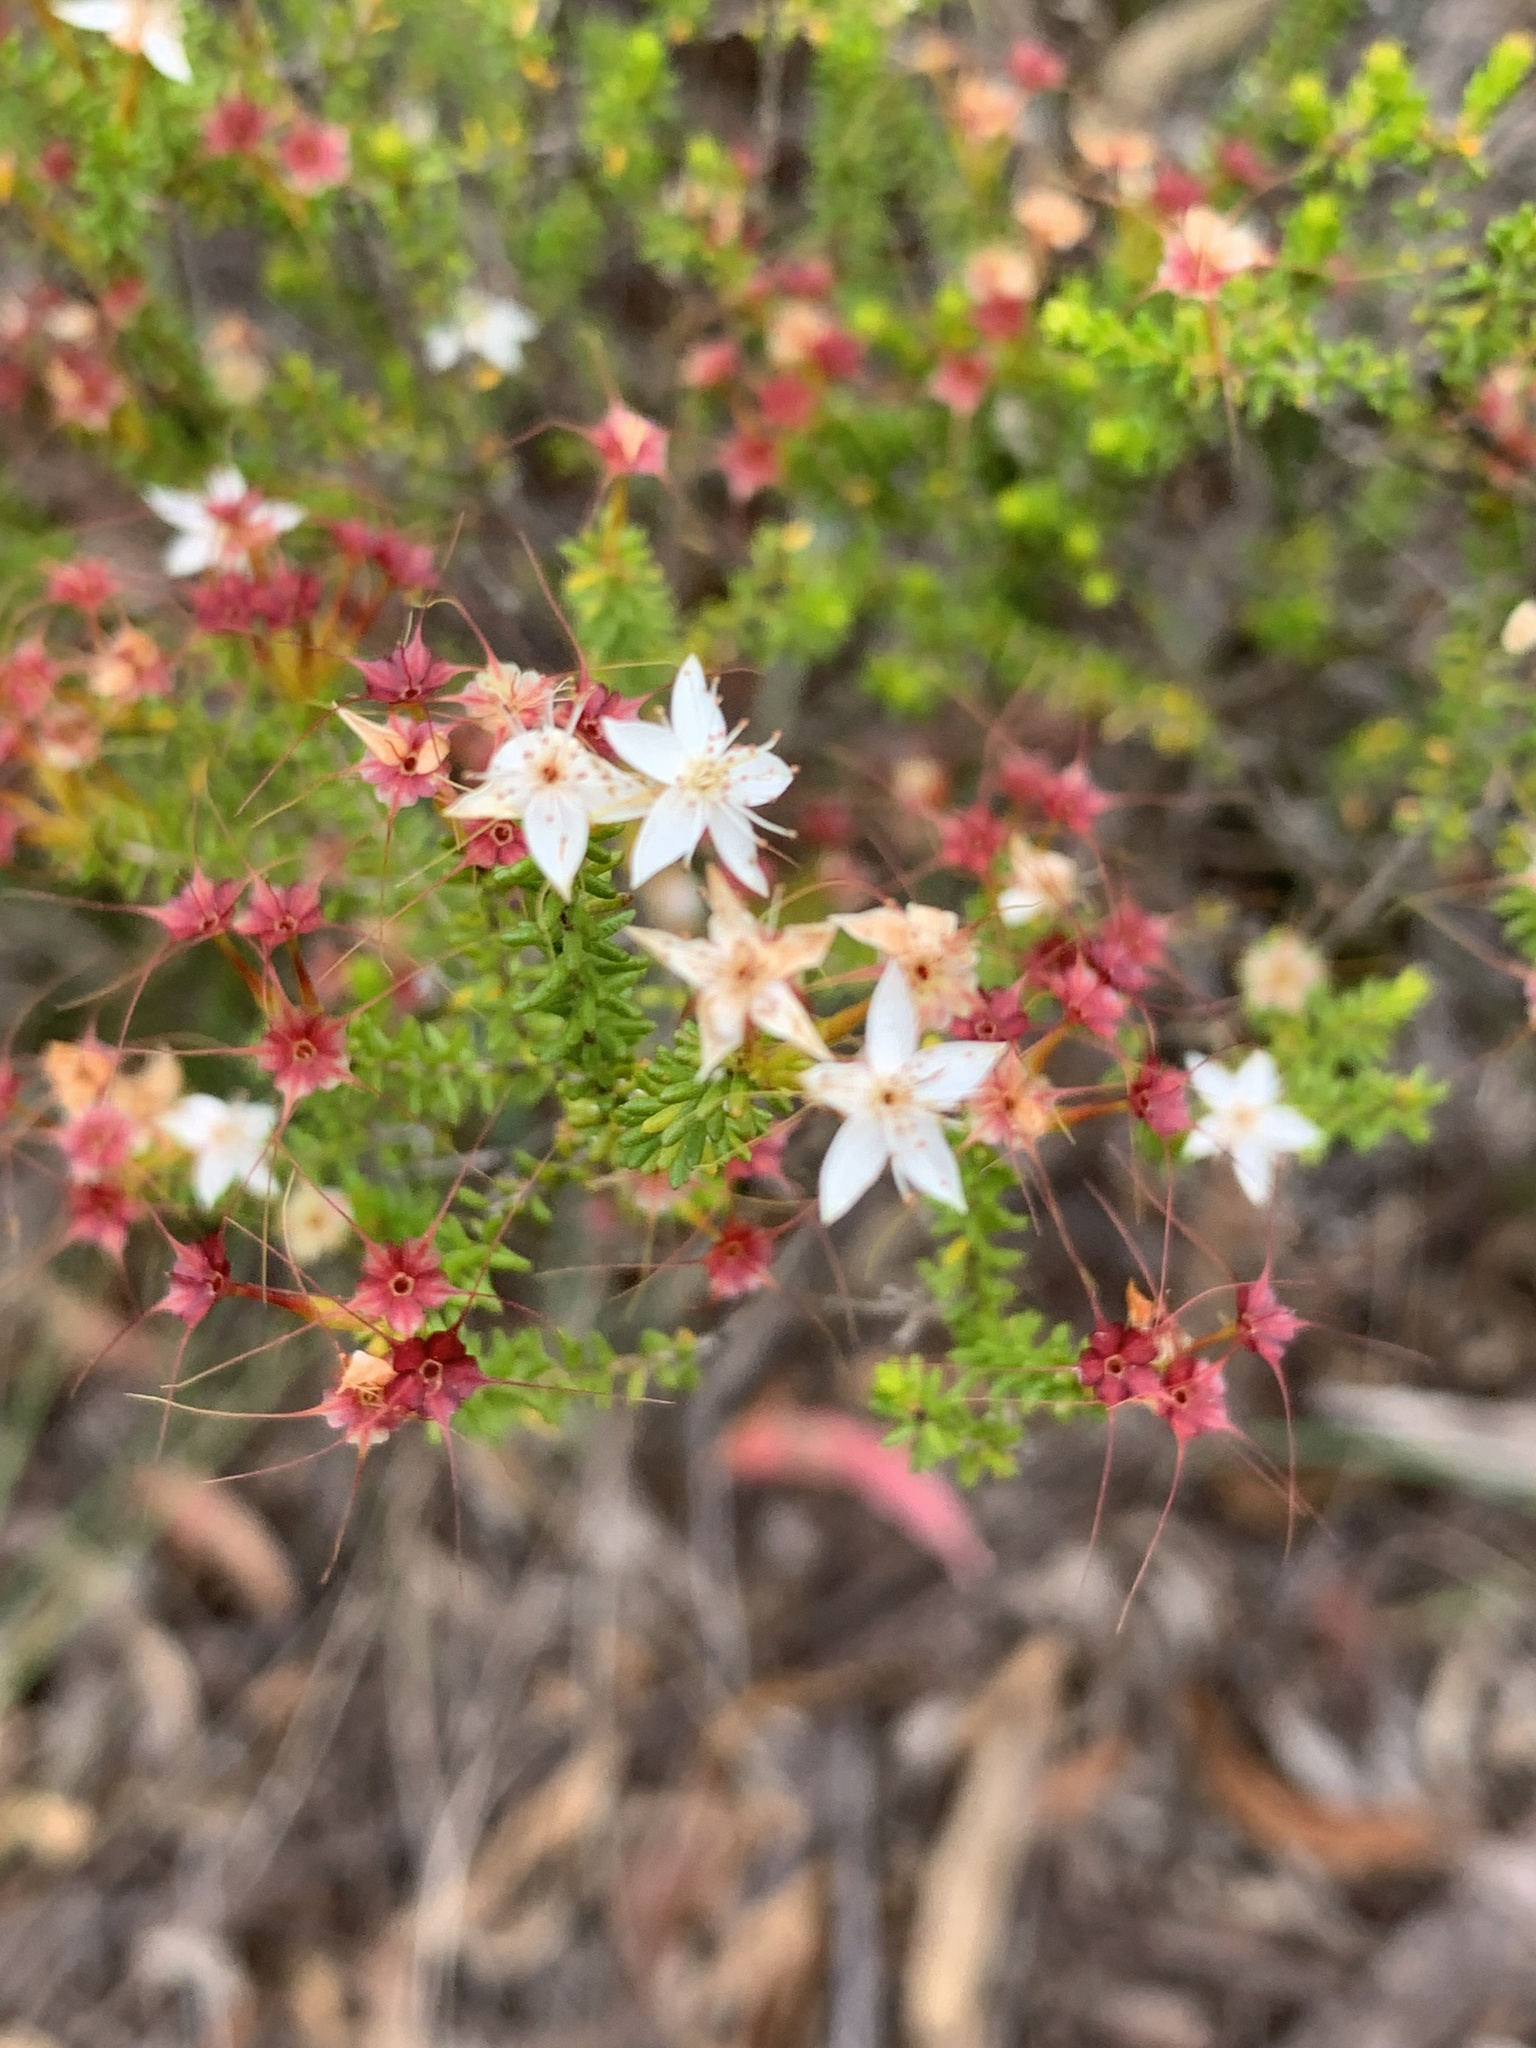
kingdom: Plantae
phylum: Tracheophyta
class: Magnoliopsida
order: Myrtales
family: Myrtaceae
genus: Calytrix
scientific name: Calytrix tetragona
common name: Common fringe myrtle
